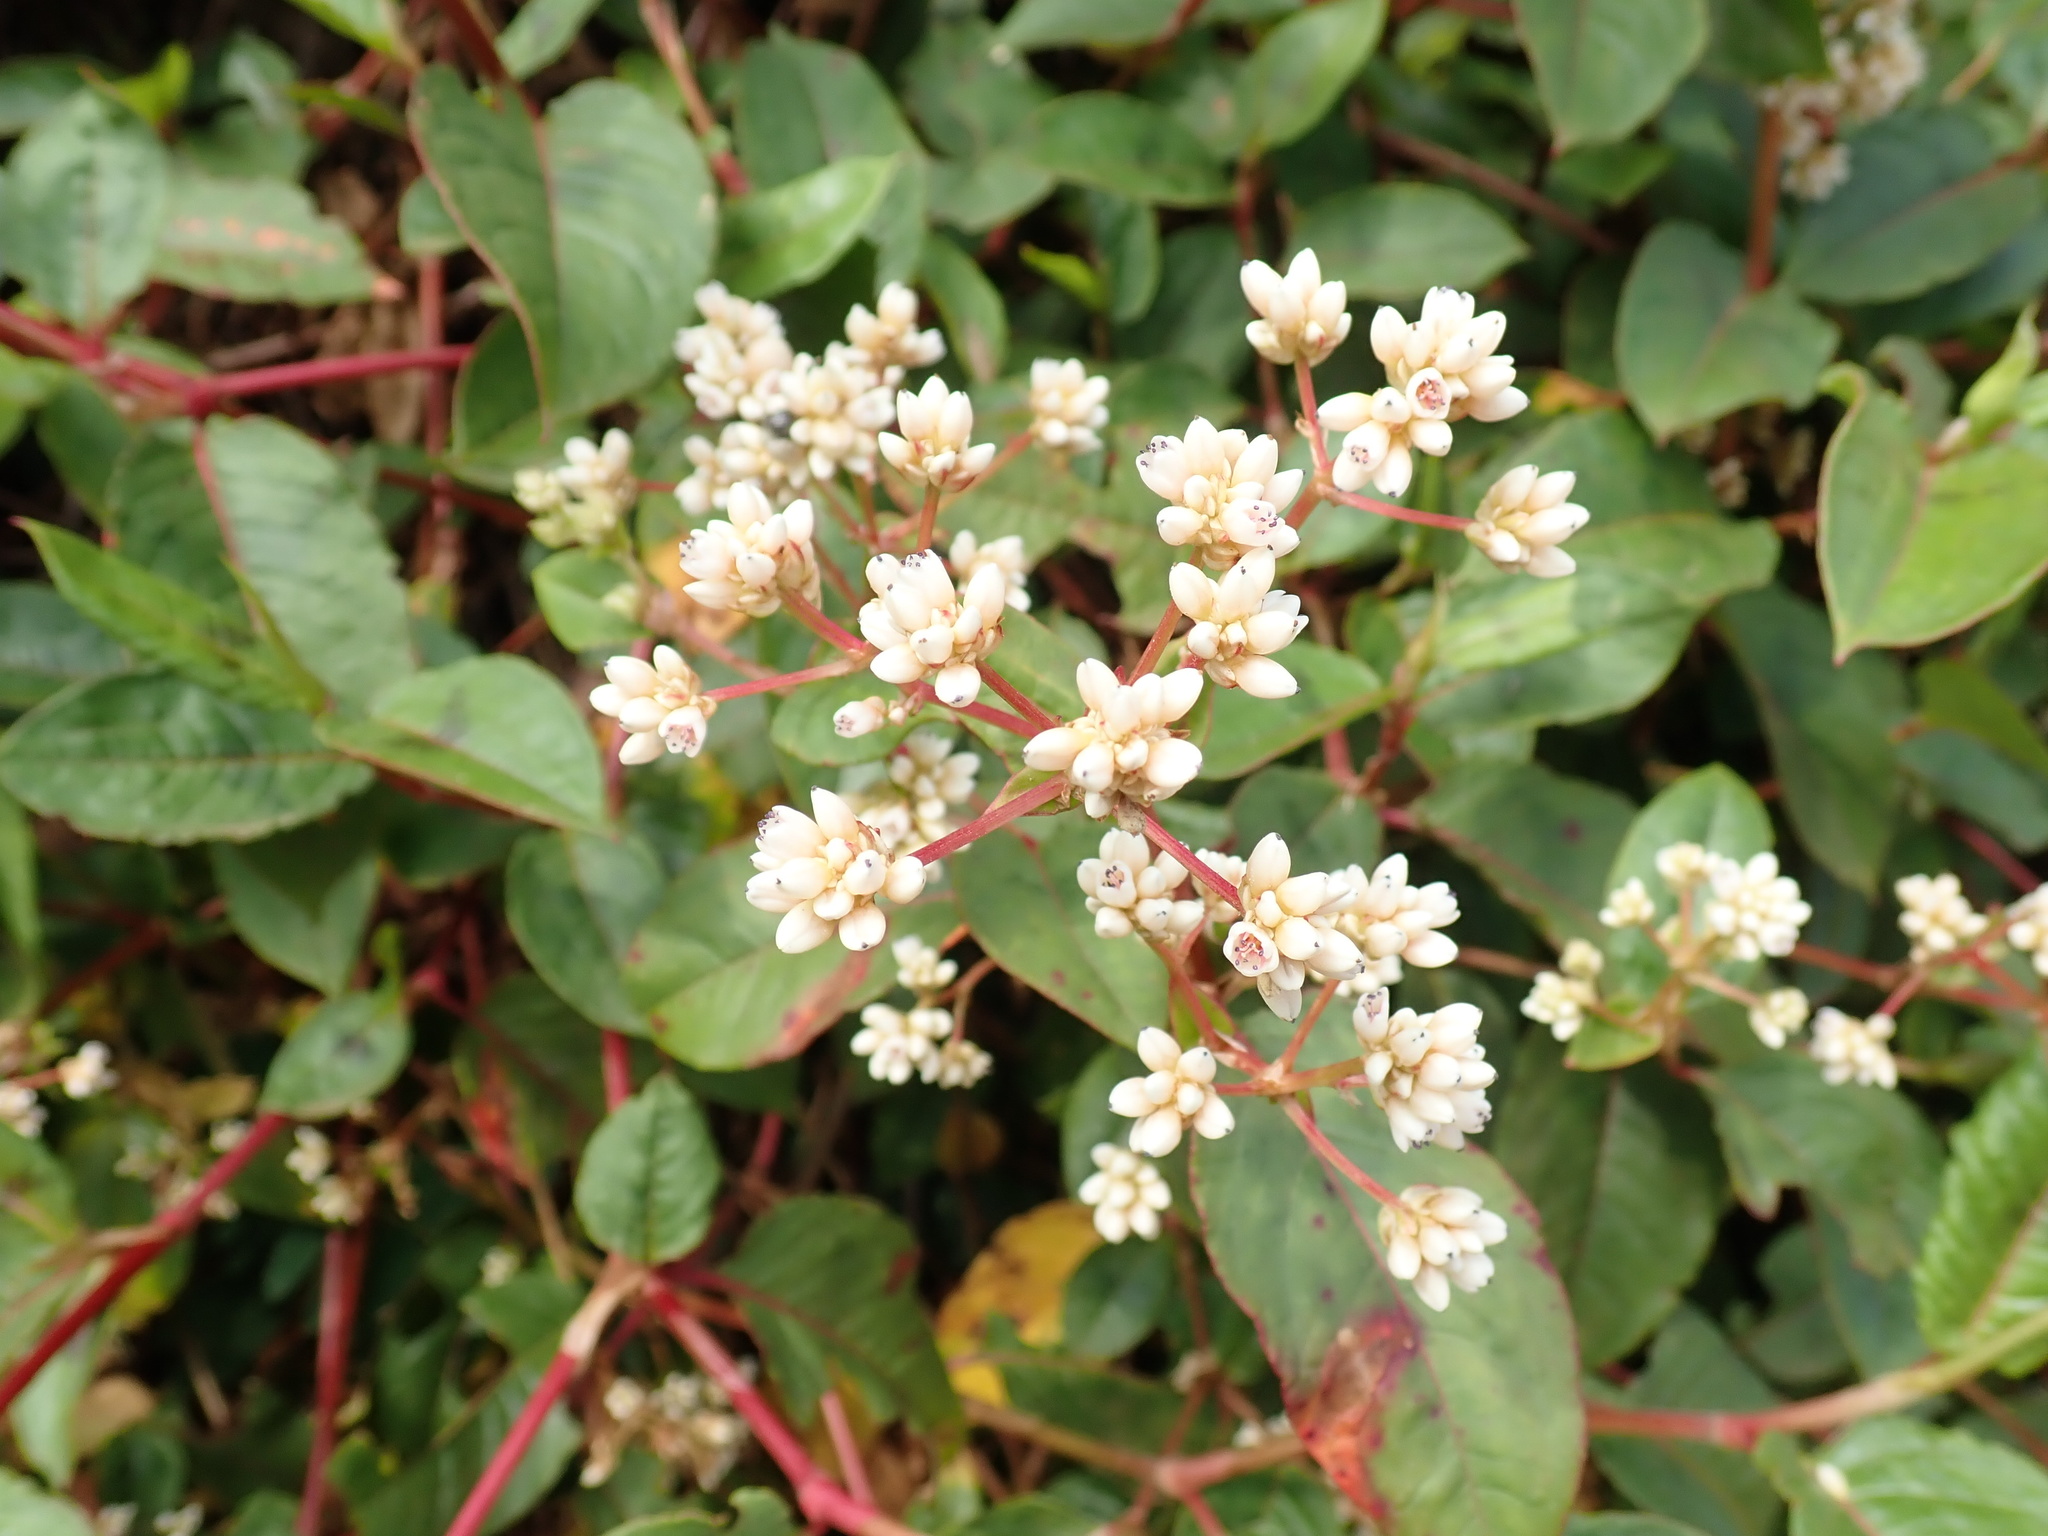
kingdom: Plantae
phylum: Tracheophyta
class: Magnoliopsida
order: Caryophyllales
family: Polygonaceae
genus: Persicaria
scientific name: Persicaria chinensis
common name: Chinese knotweed
